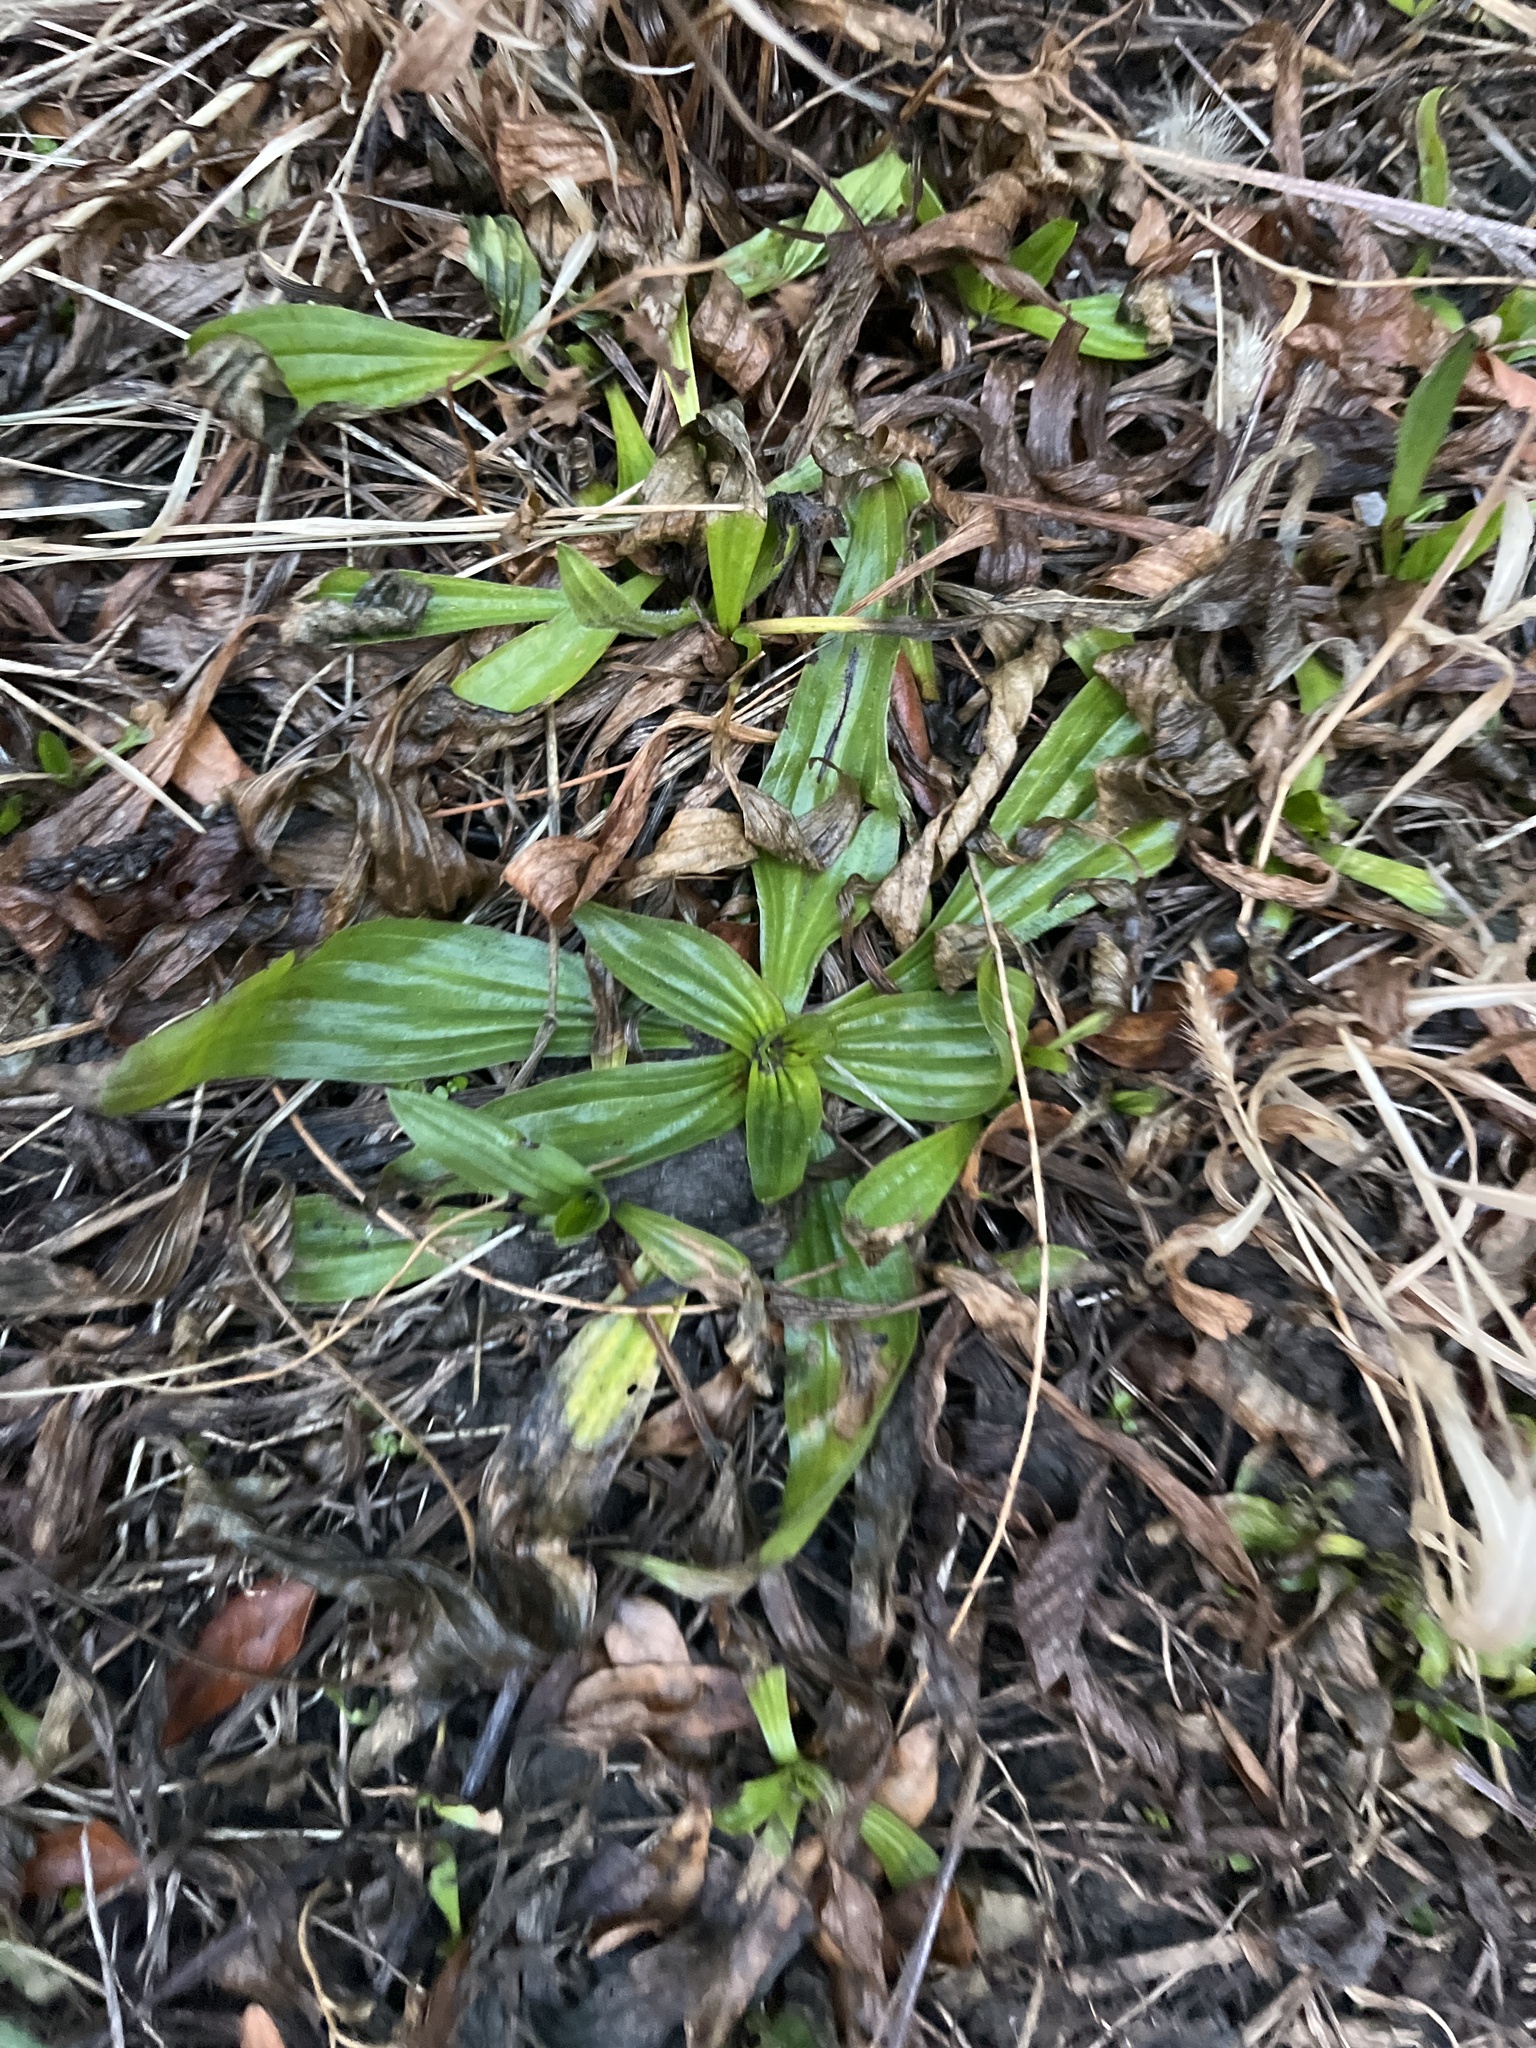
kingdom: Plantae
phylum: Tracheophyta
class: Magnoliopsida
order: Lamiales
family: Plantaginaceae
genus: Plantago
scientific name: Plantago lanceolata
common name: Ribwort plantain
